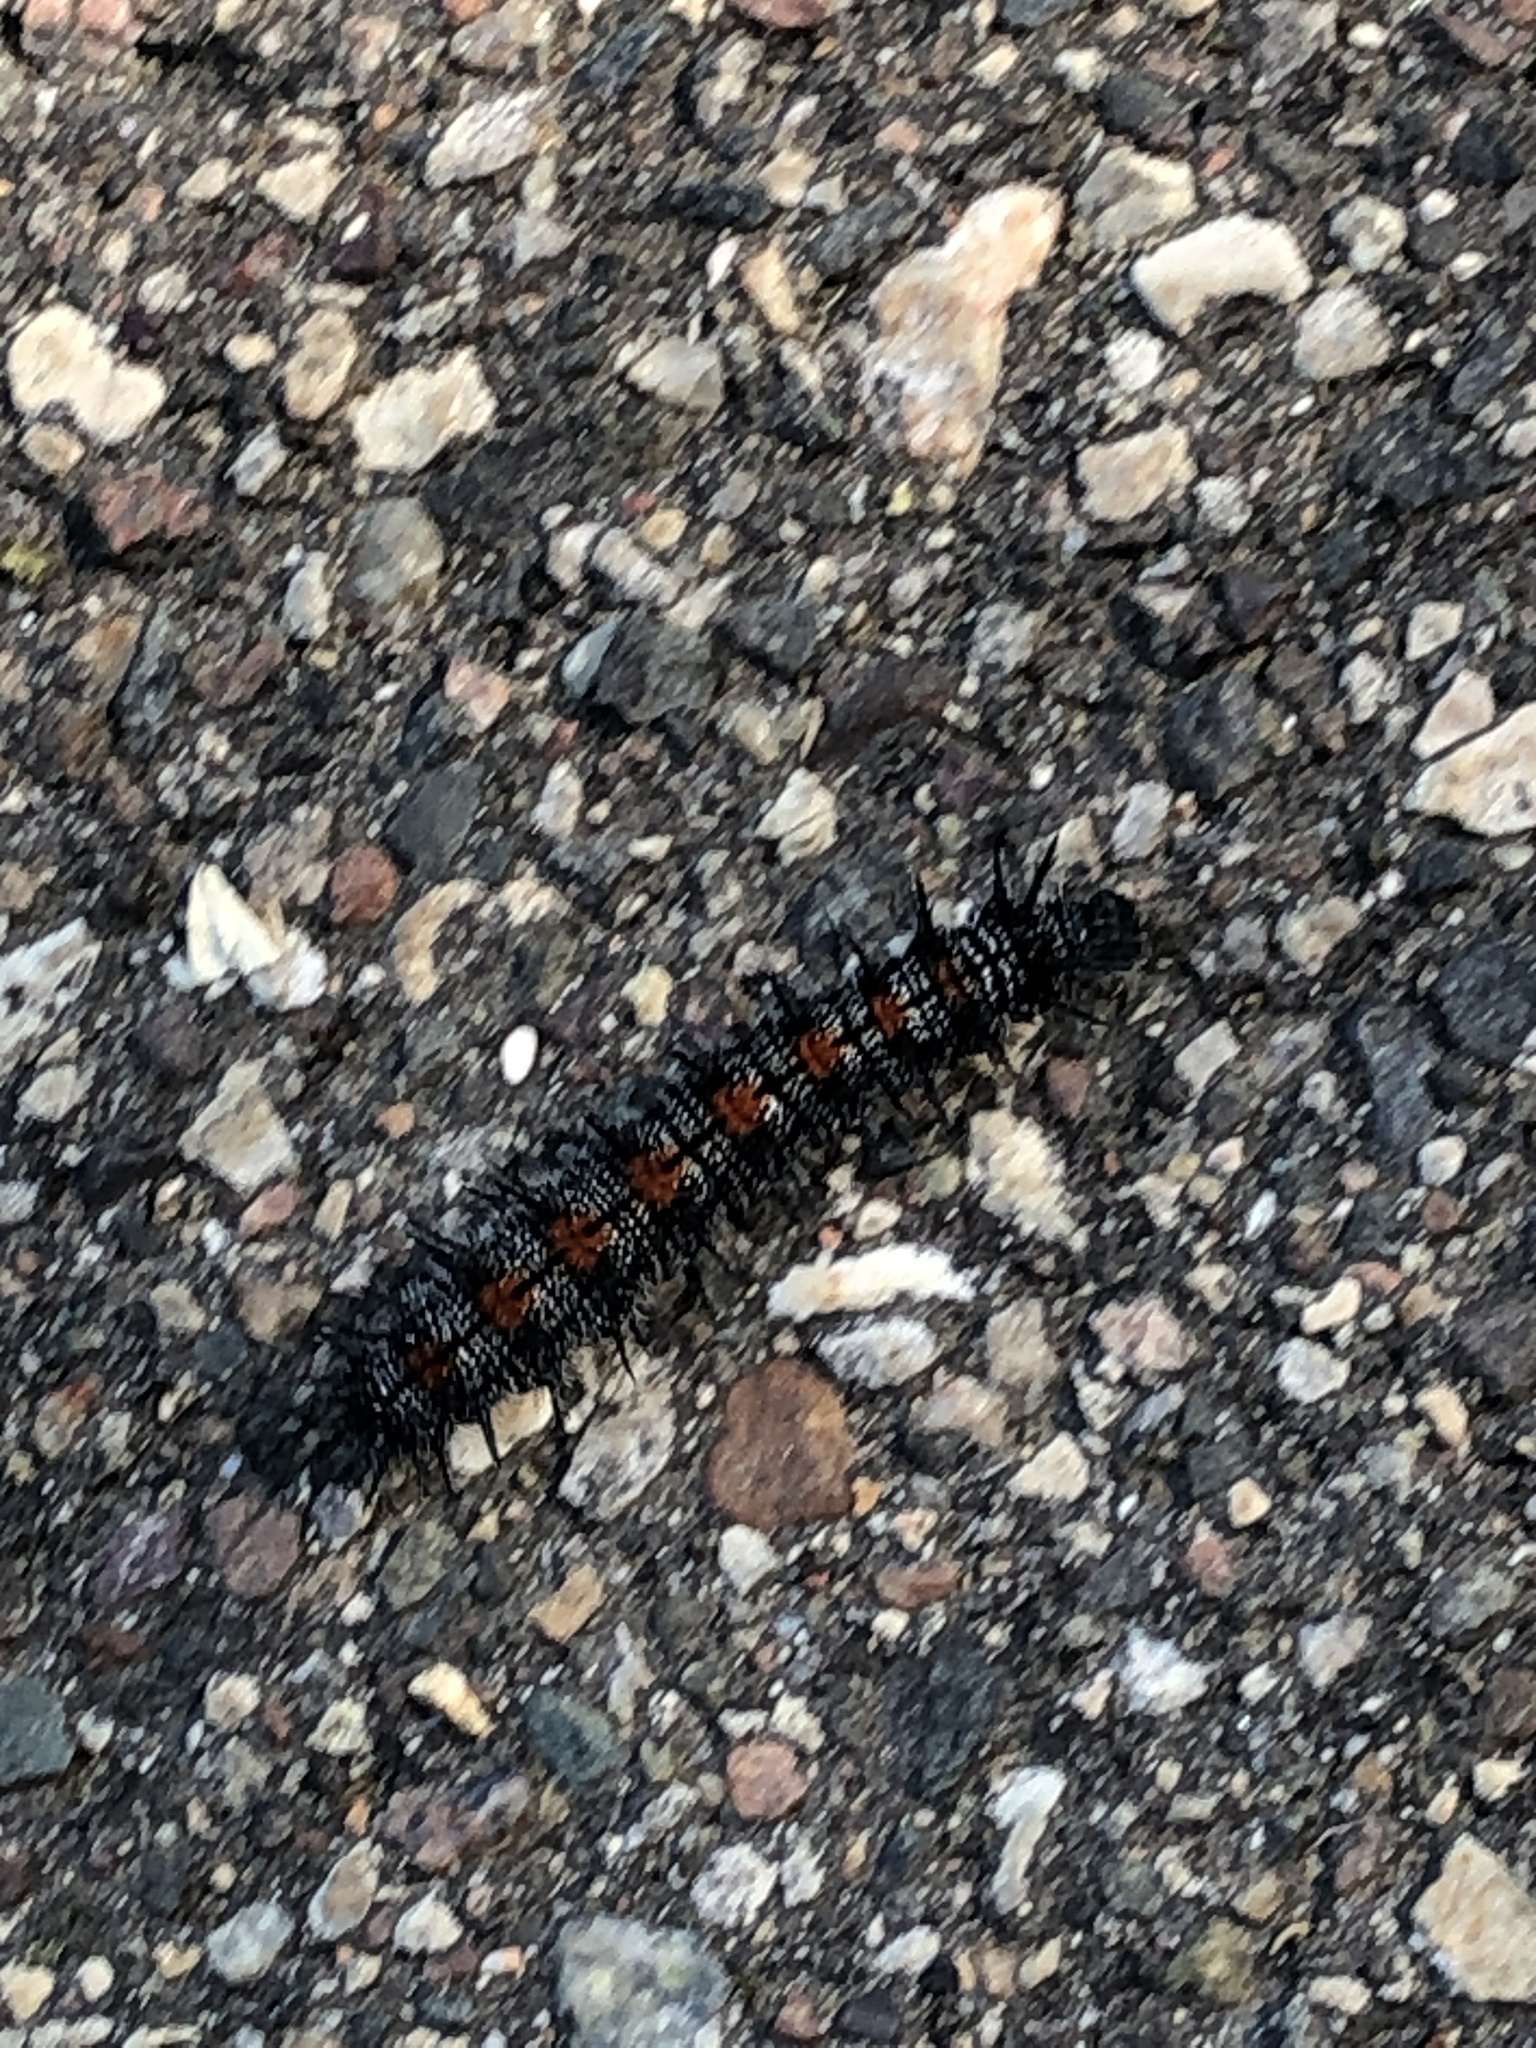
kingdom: Animalia
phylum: Arthropoda
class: Insecta
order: Lepidoptera
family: Nymphalidae
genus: Nymphalis
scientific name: Nymphalis antiopa
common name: Camberwell beauty
